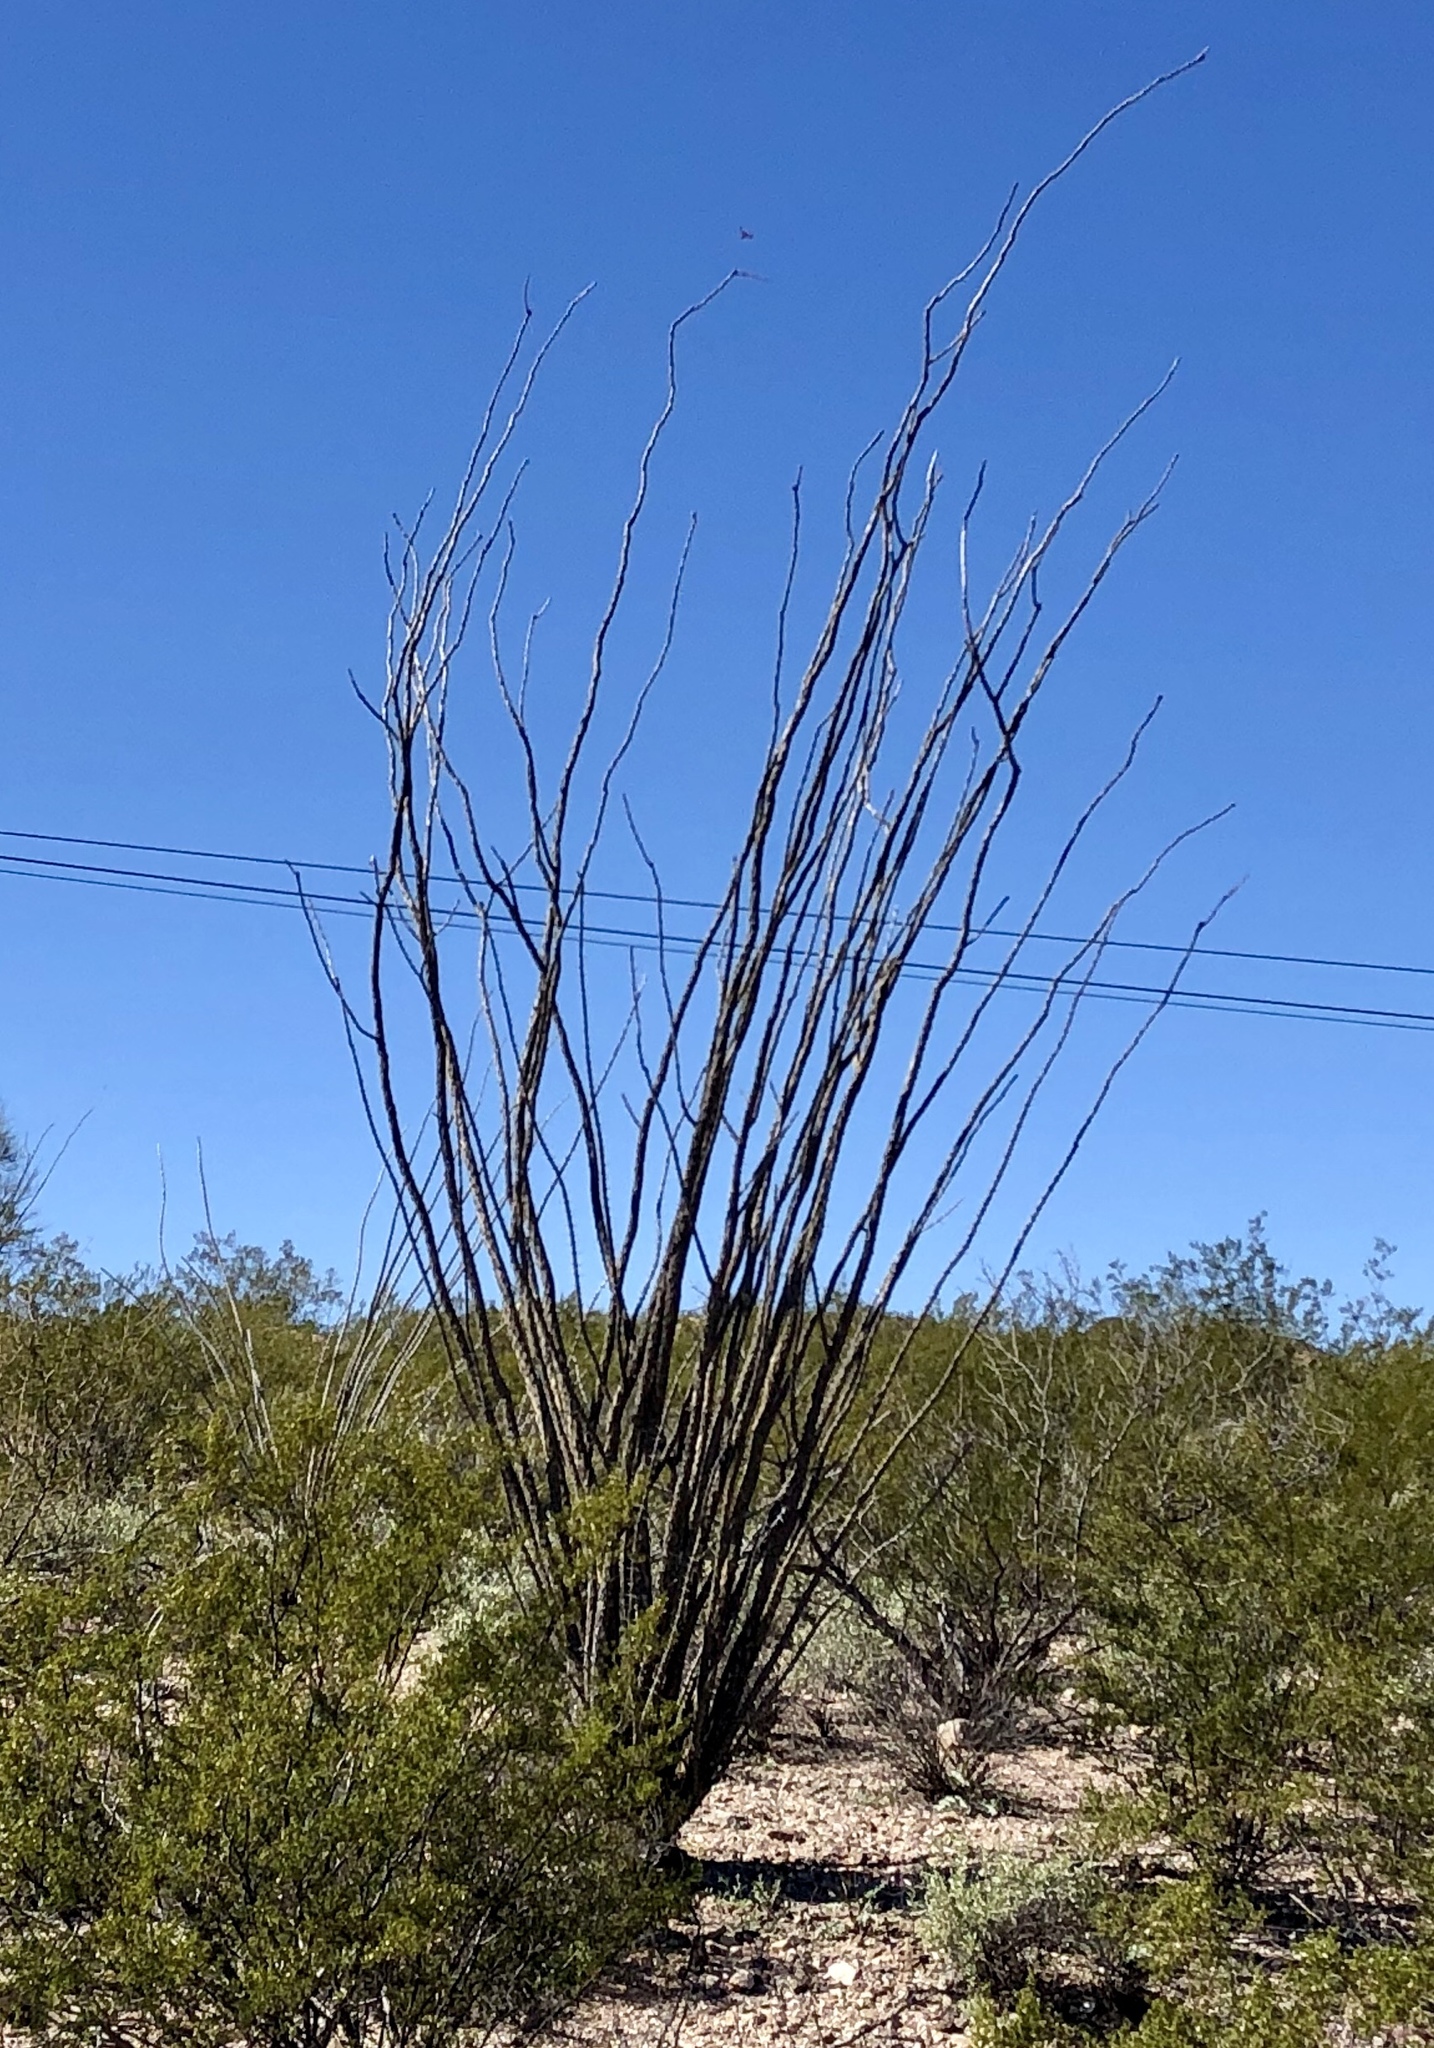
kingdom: Plantae
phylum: Tracheophyta
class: Magnoliopsida
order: Ericales
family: Fouquieriaceae
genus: Fouquieria
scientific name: Fouquieria splendens
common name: Vine-cactus
